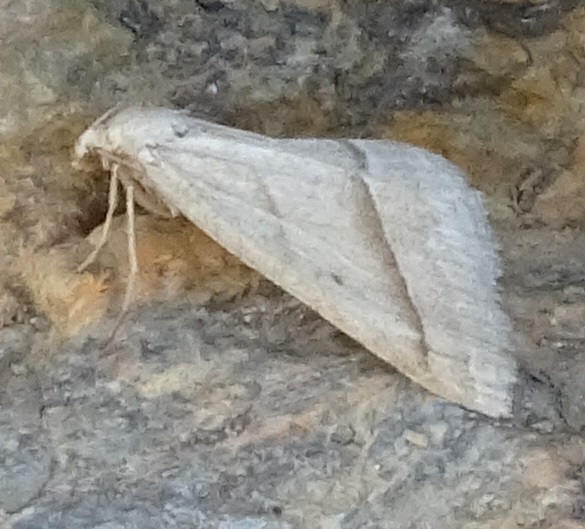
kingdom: Animalia
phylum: Arthropoda
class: Insecta
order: Lepidoptera
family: Pterophoridae
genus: Pterophorus
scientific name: Pterophorus Petrophora chlorosata
